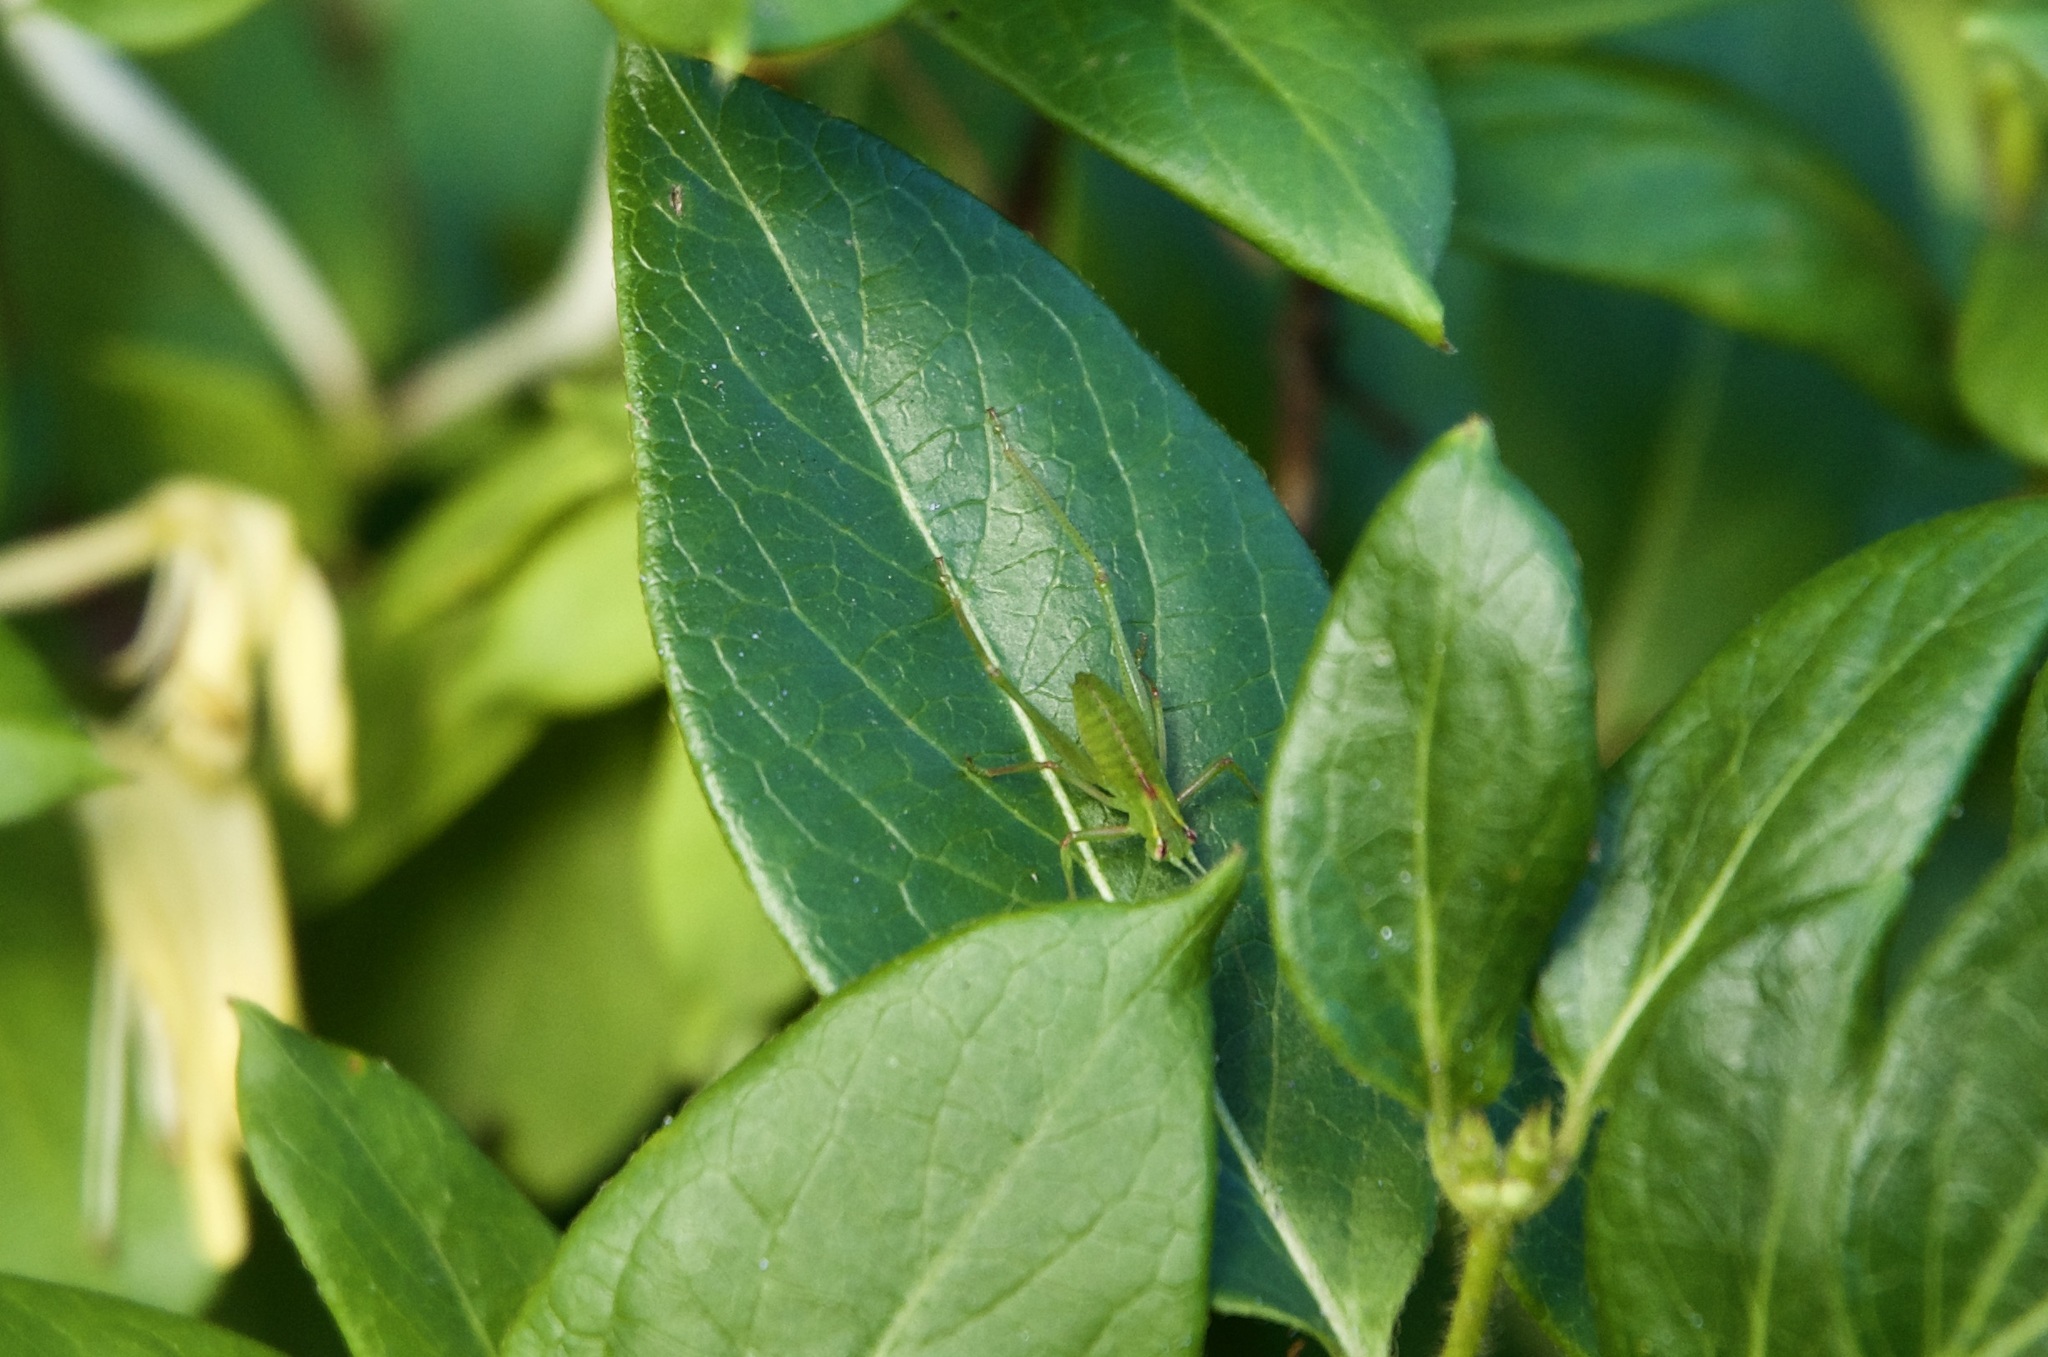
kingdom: Animalia
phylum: Arthropoda
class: Insecta
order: Orthoptera
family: Tettigoniidae
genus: Caedicia
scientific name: Caedicia simplex
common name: Common garden katydid
